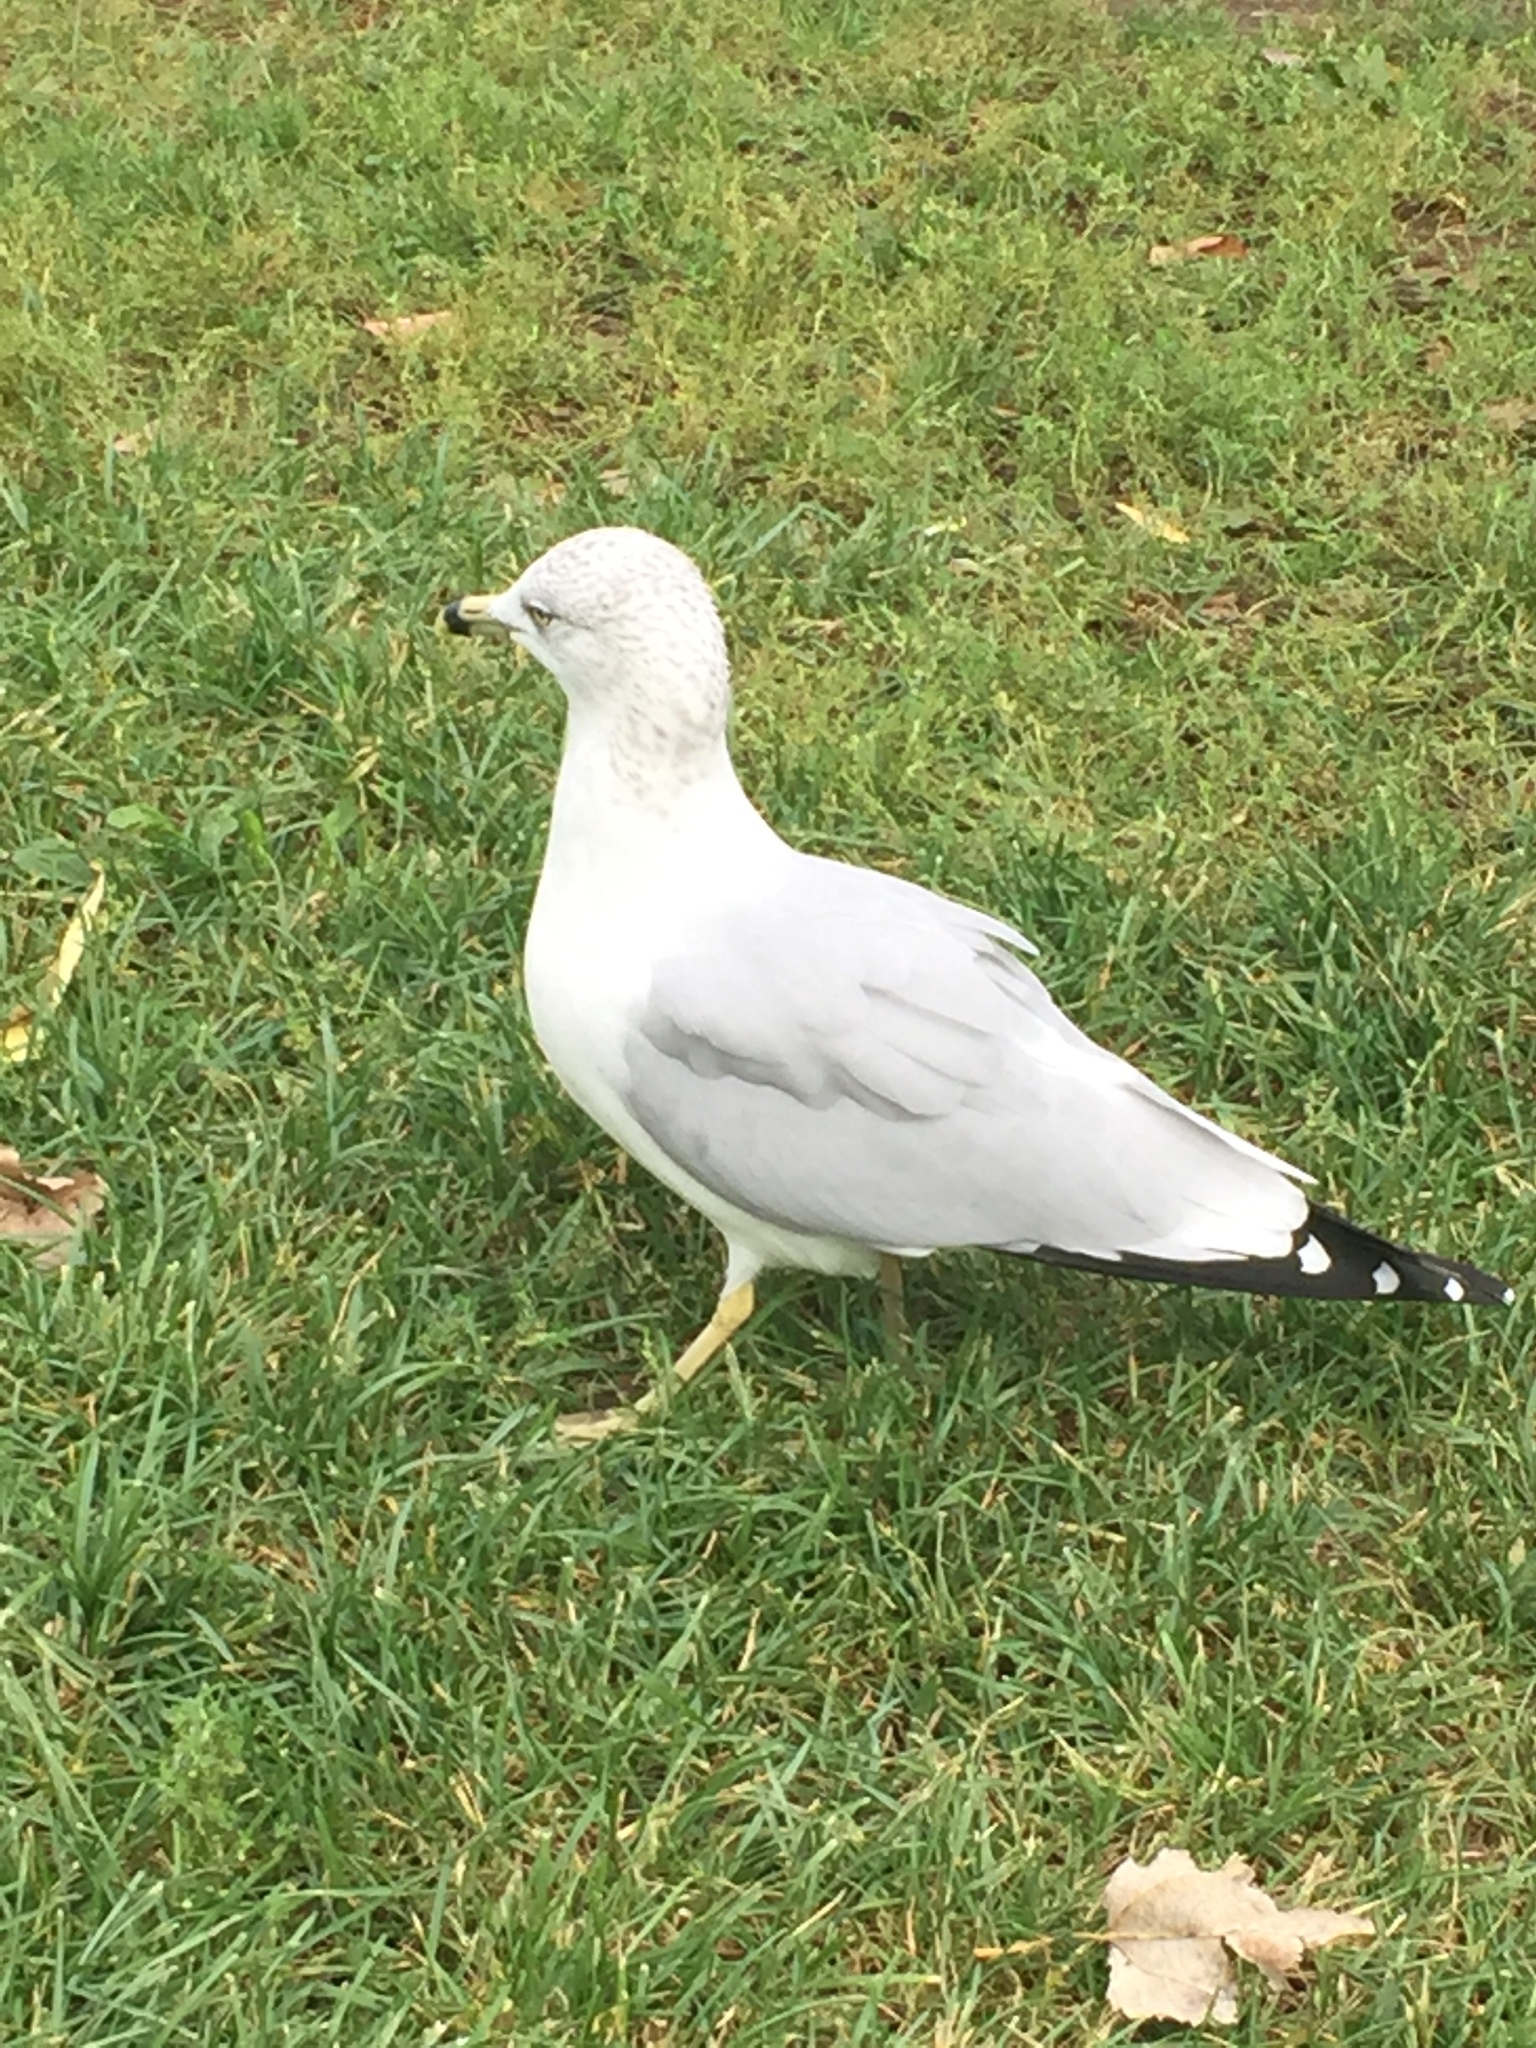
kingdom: Animalia
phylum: Chordata
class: Aves
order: Charadriiformes
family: Laridae
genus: Larus
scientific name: Larus delawarensis
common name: Ring-billed gull
